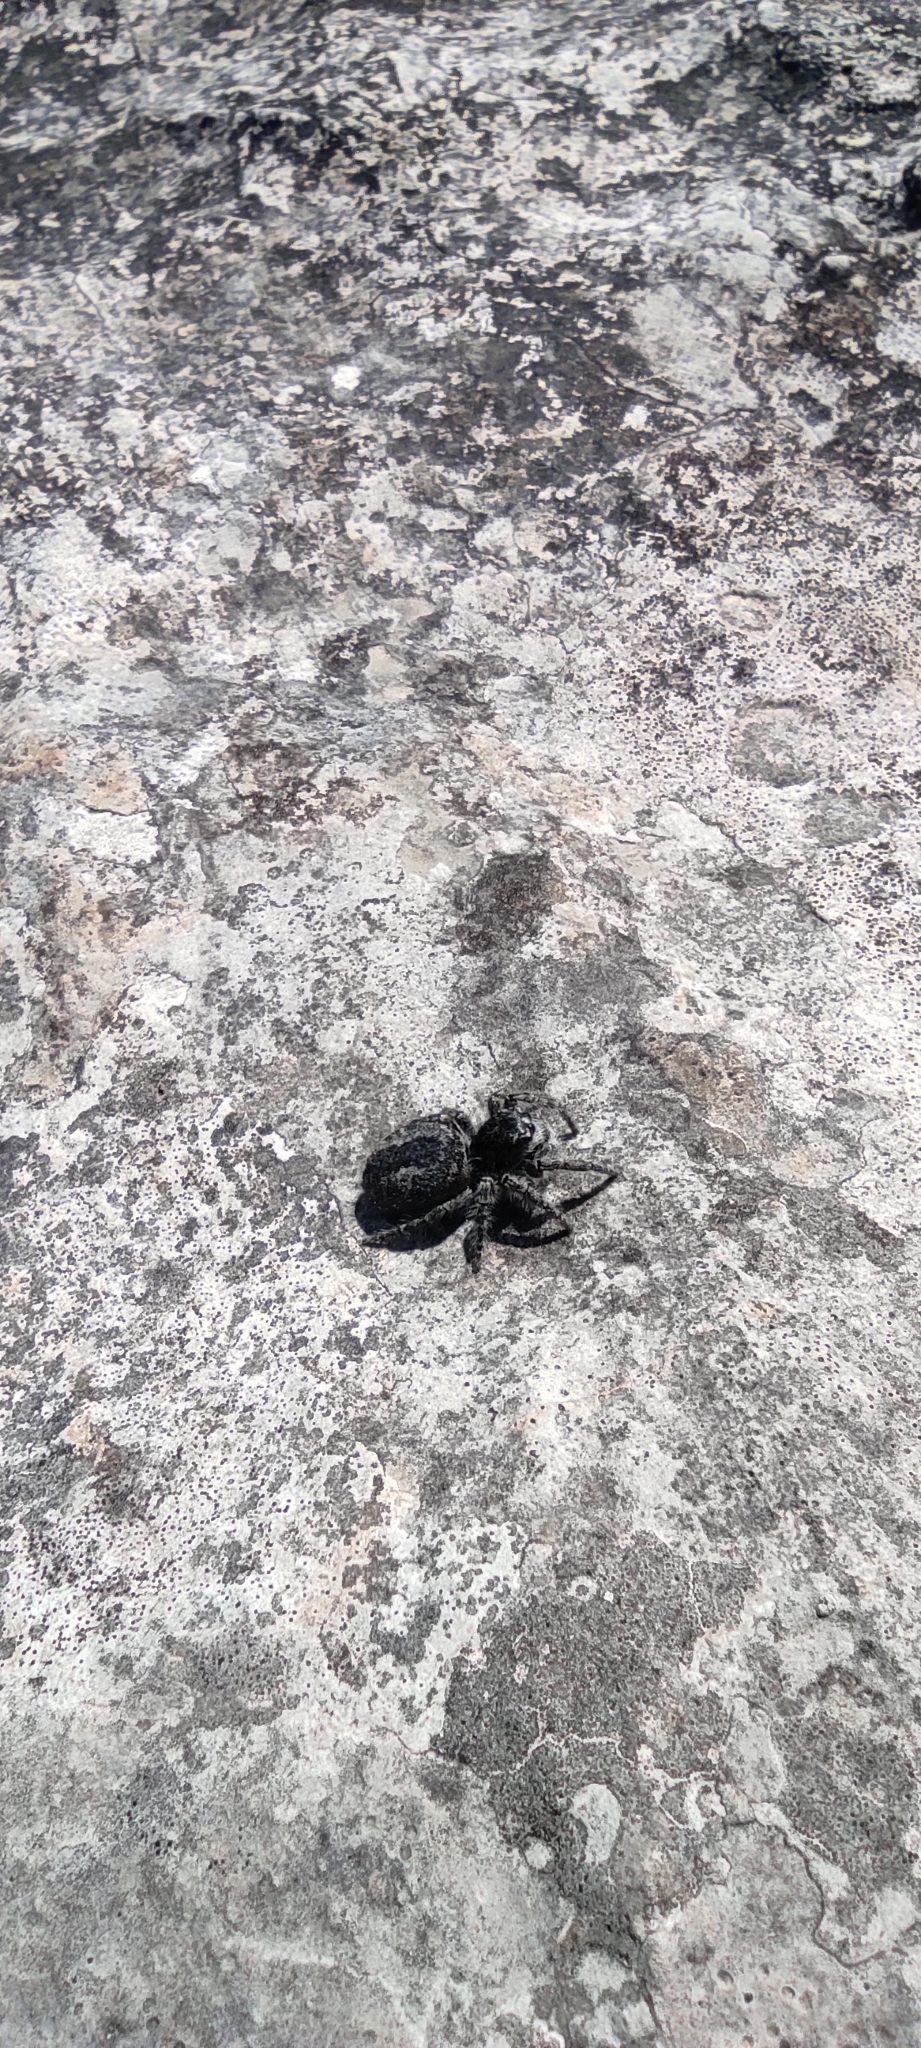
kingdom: Animalia
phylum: Arthropoda
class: Arachnida
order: Araneae
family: Salticidae
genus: Philaeus
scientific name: Philaeus chrysops
